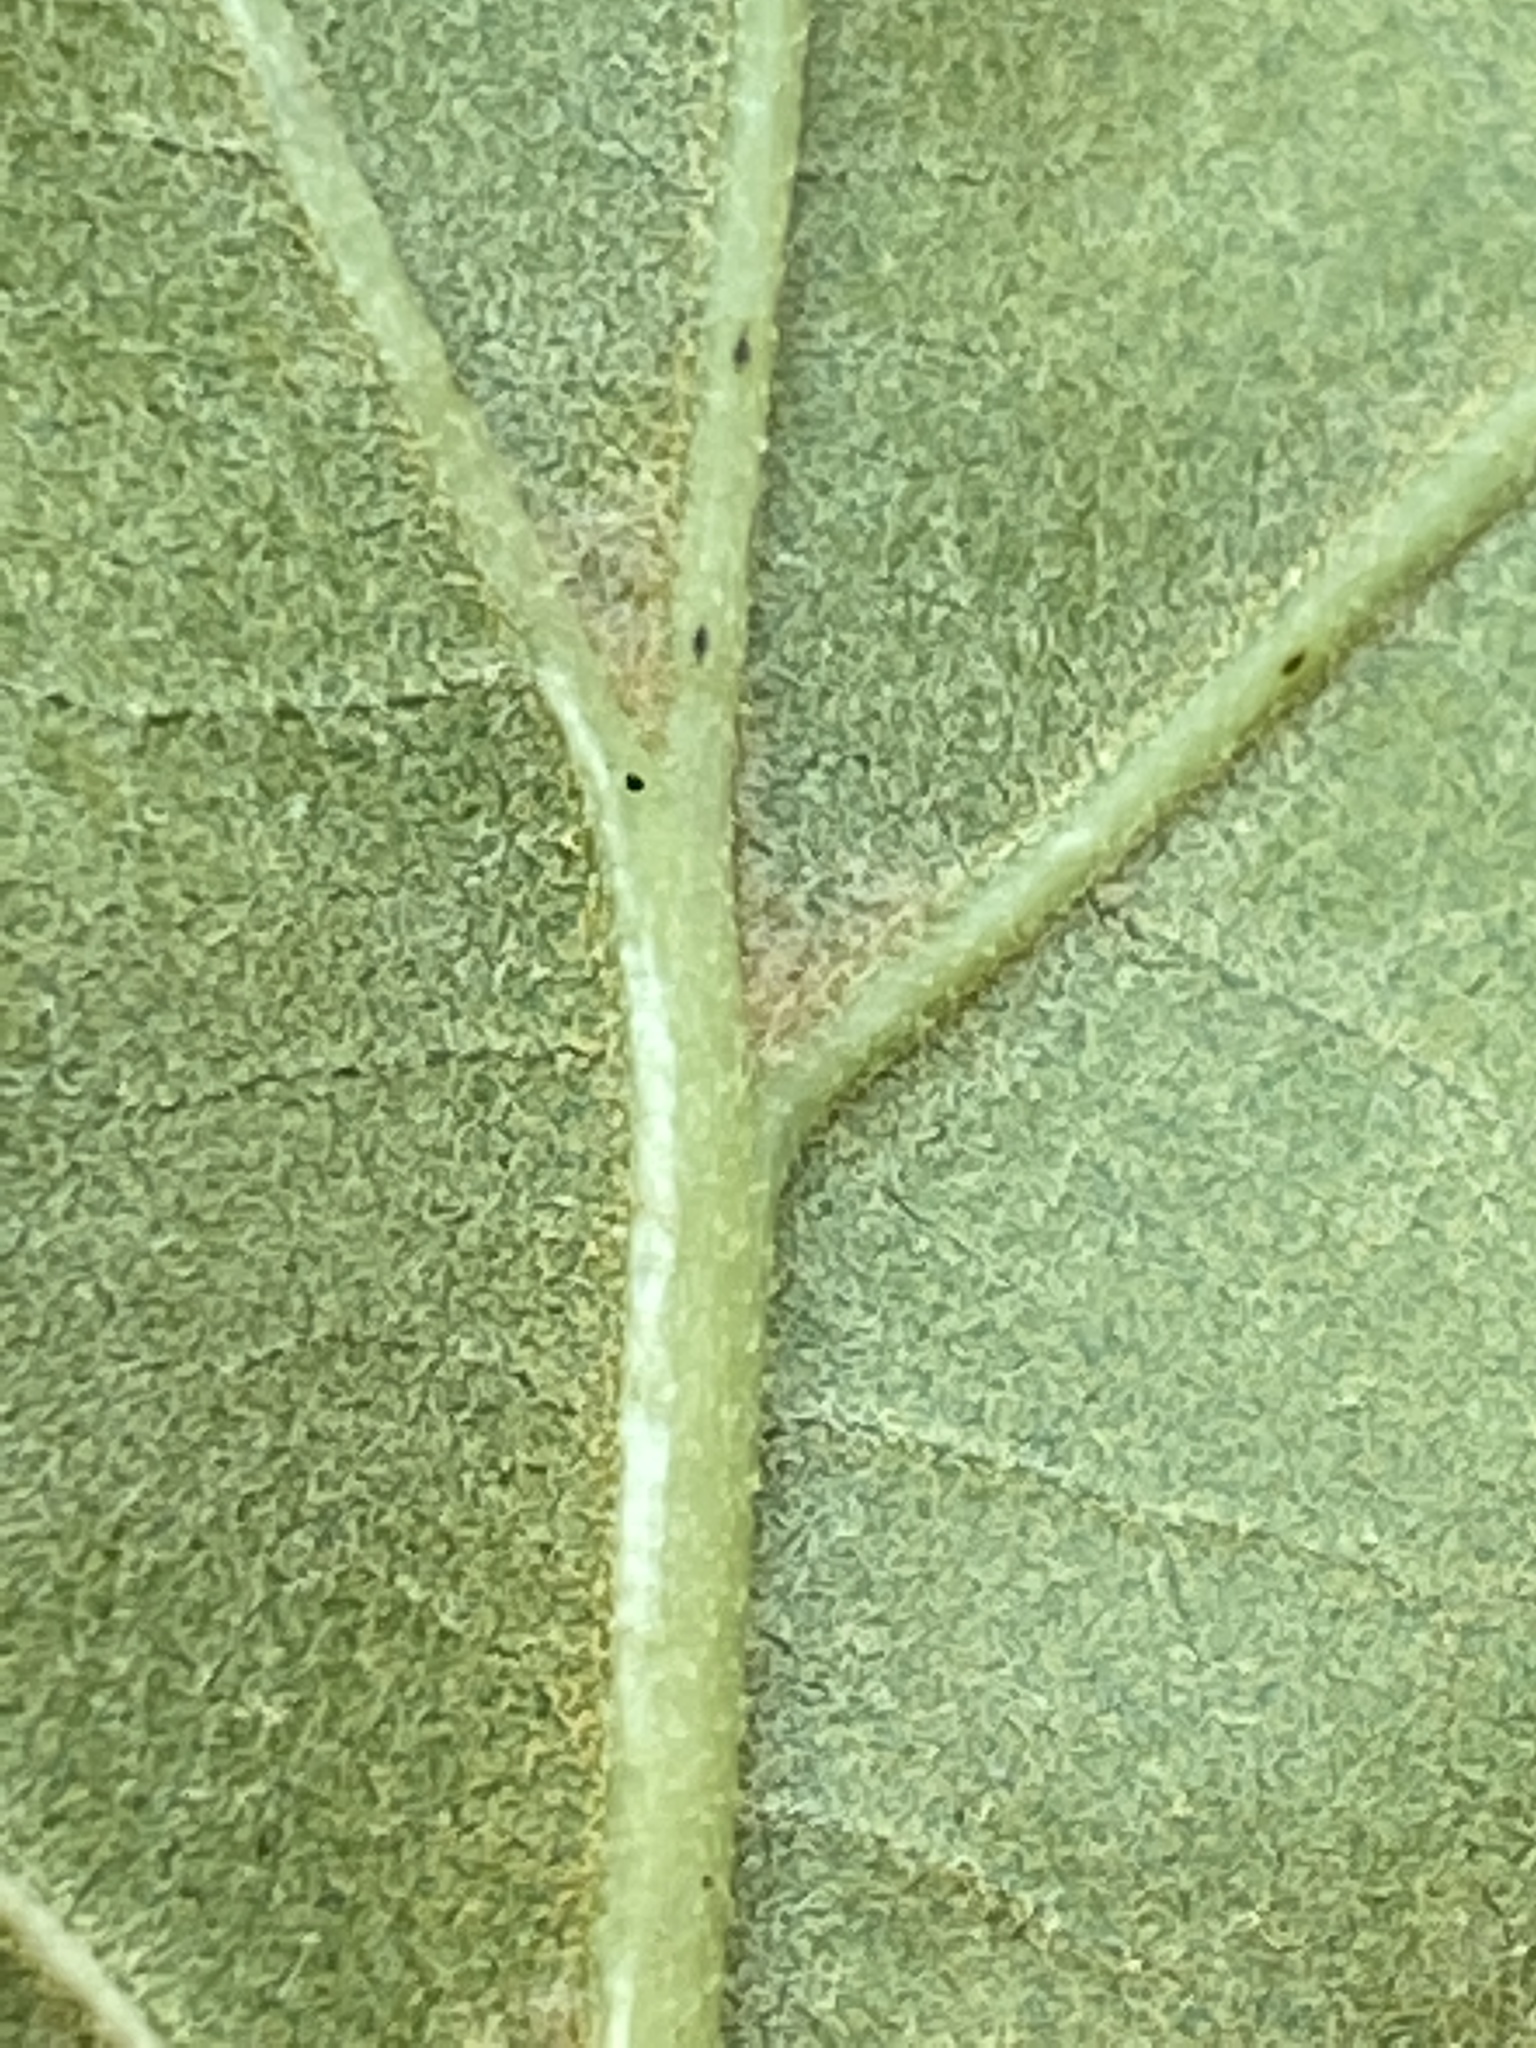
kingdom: Plantae
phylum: Tracheophyta
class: Magnoliopsida
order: Fagales
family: Fagaceae
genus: Quercus
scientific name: Quercus marilandica
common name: Blackjack oak
